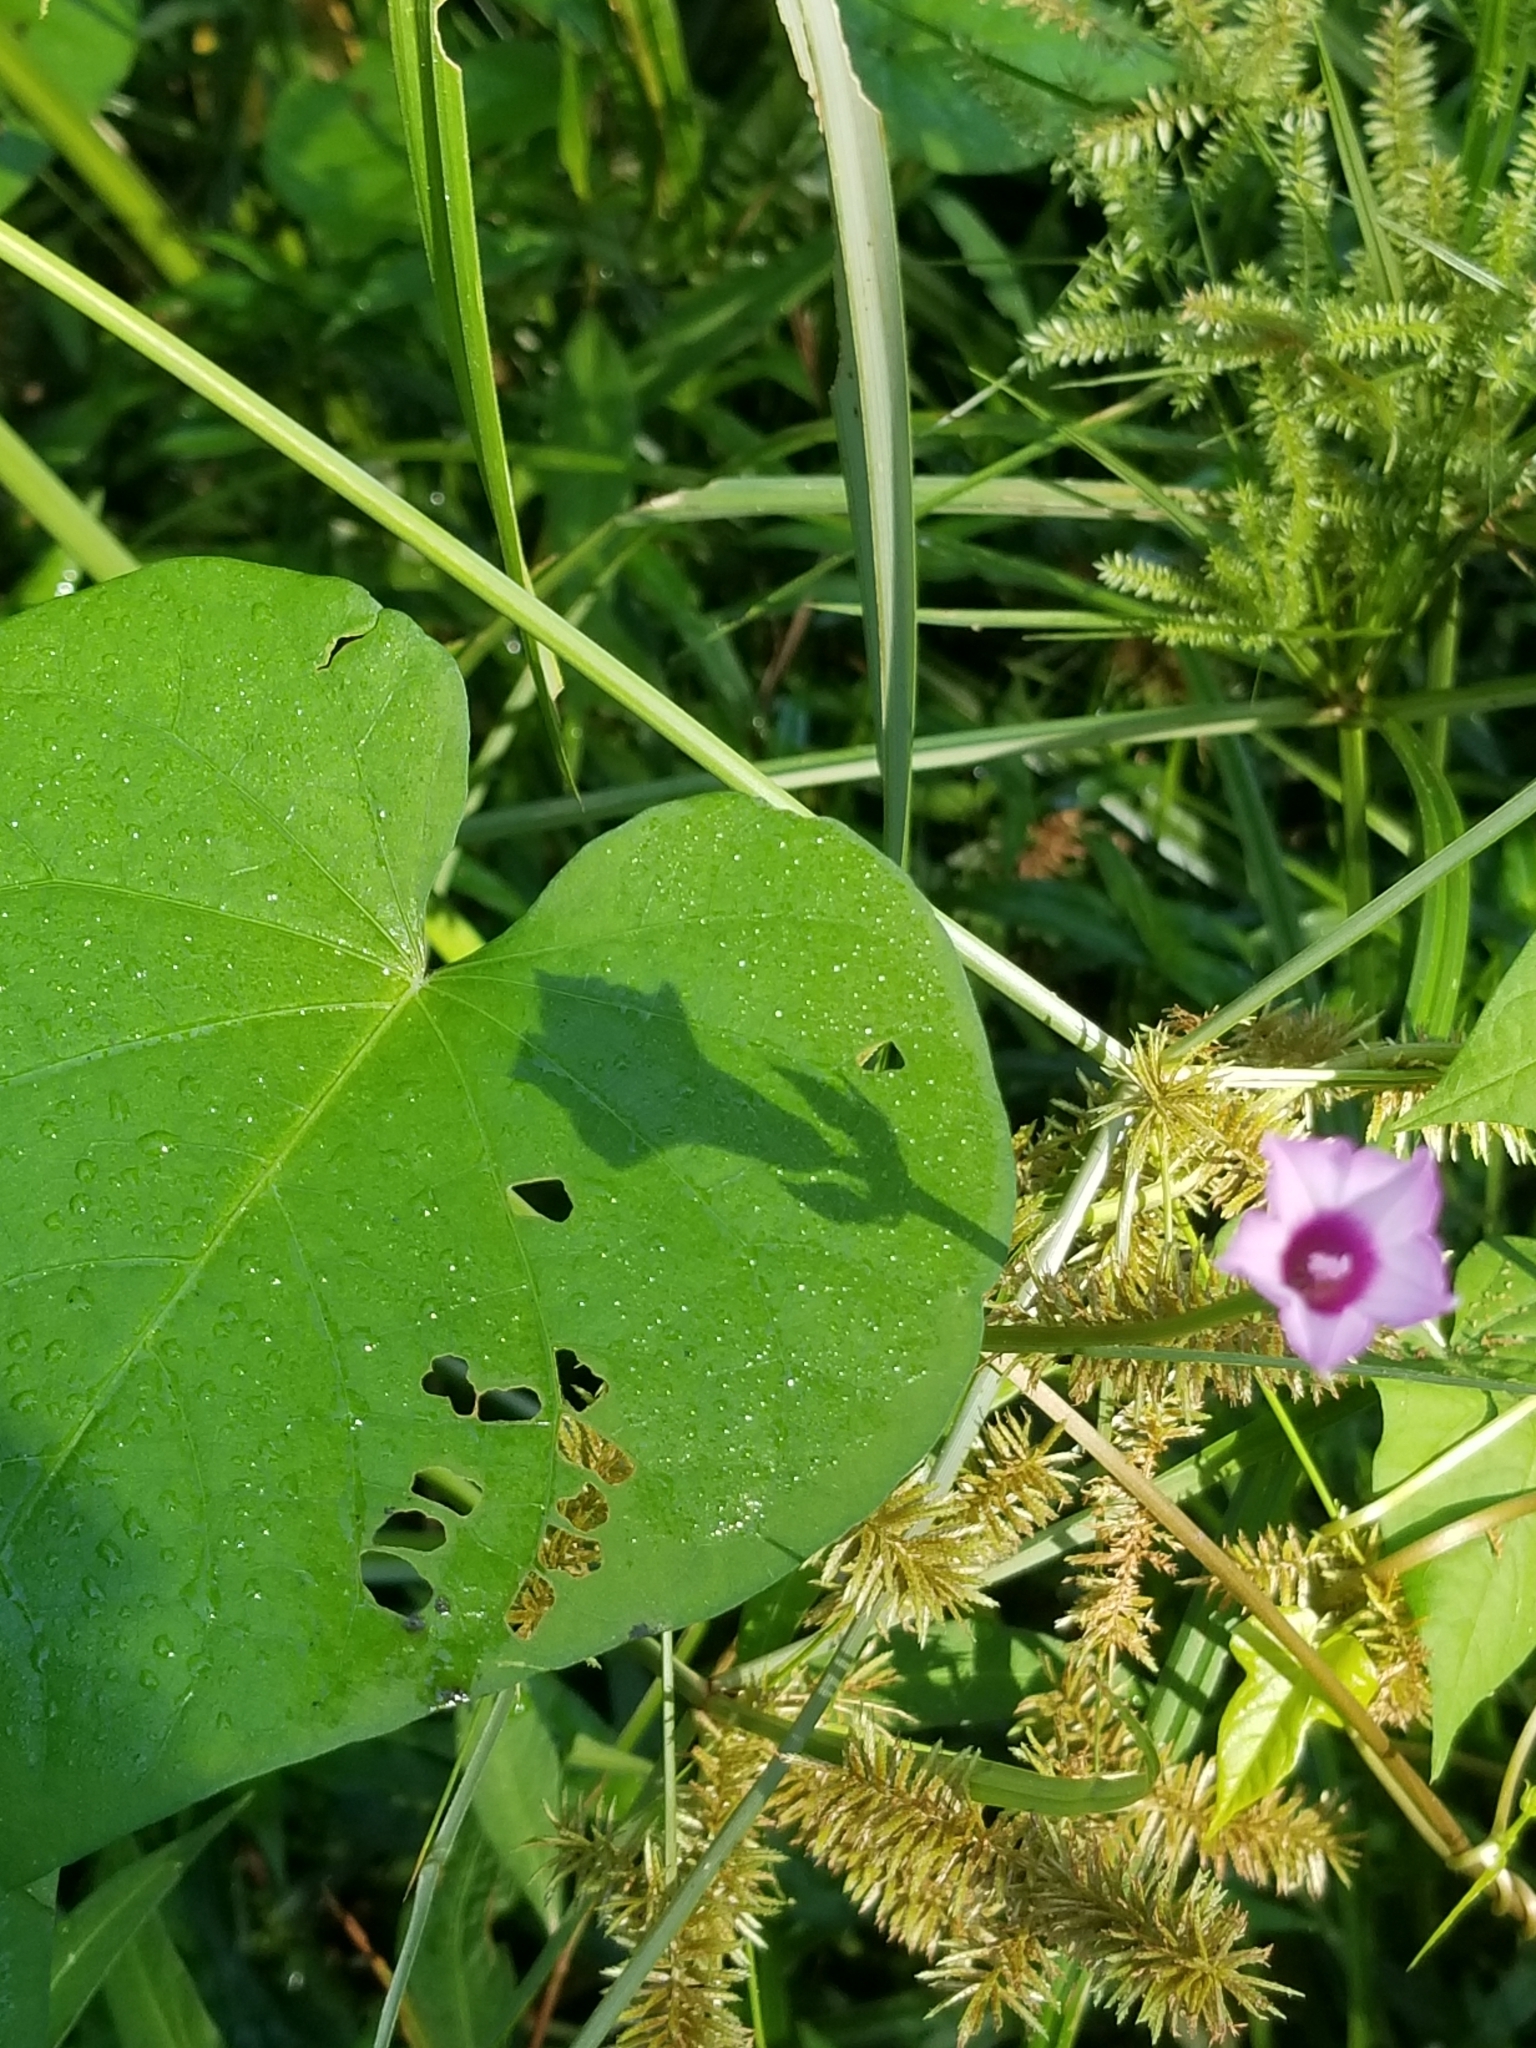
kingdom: Plantae
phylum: Tracheophyta
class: Magnoliopsida
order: Solanales
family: Convolvulaceae
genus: Ipomoea
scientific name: Ipomoea triloba
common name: Little-bell
